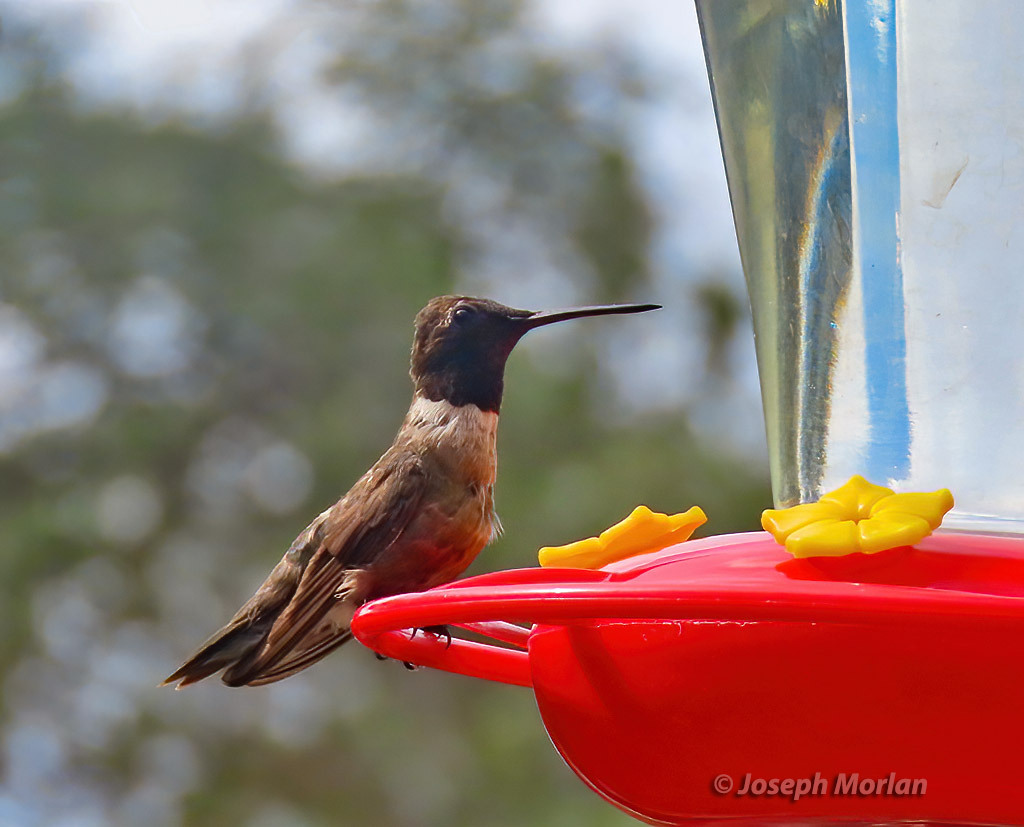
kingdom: Animalia
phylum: Chordata
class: Aves
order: Apodiformes
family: Trochilidae
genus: Archilochus
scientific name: Archilochus alexandri
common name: Black-chinned hummingbird
